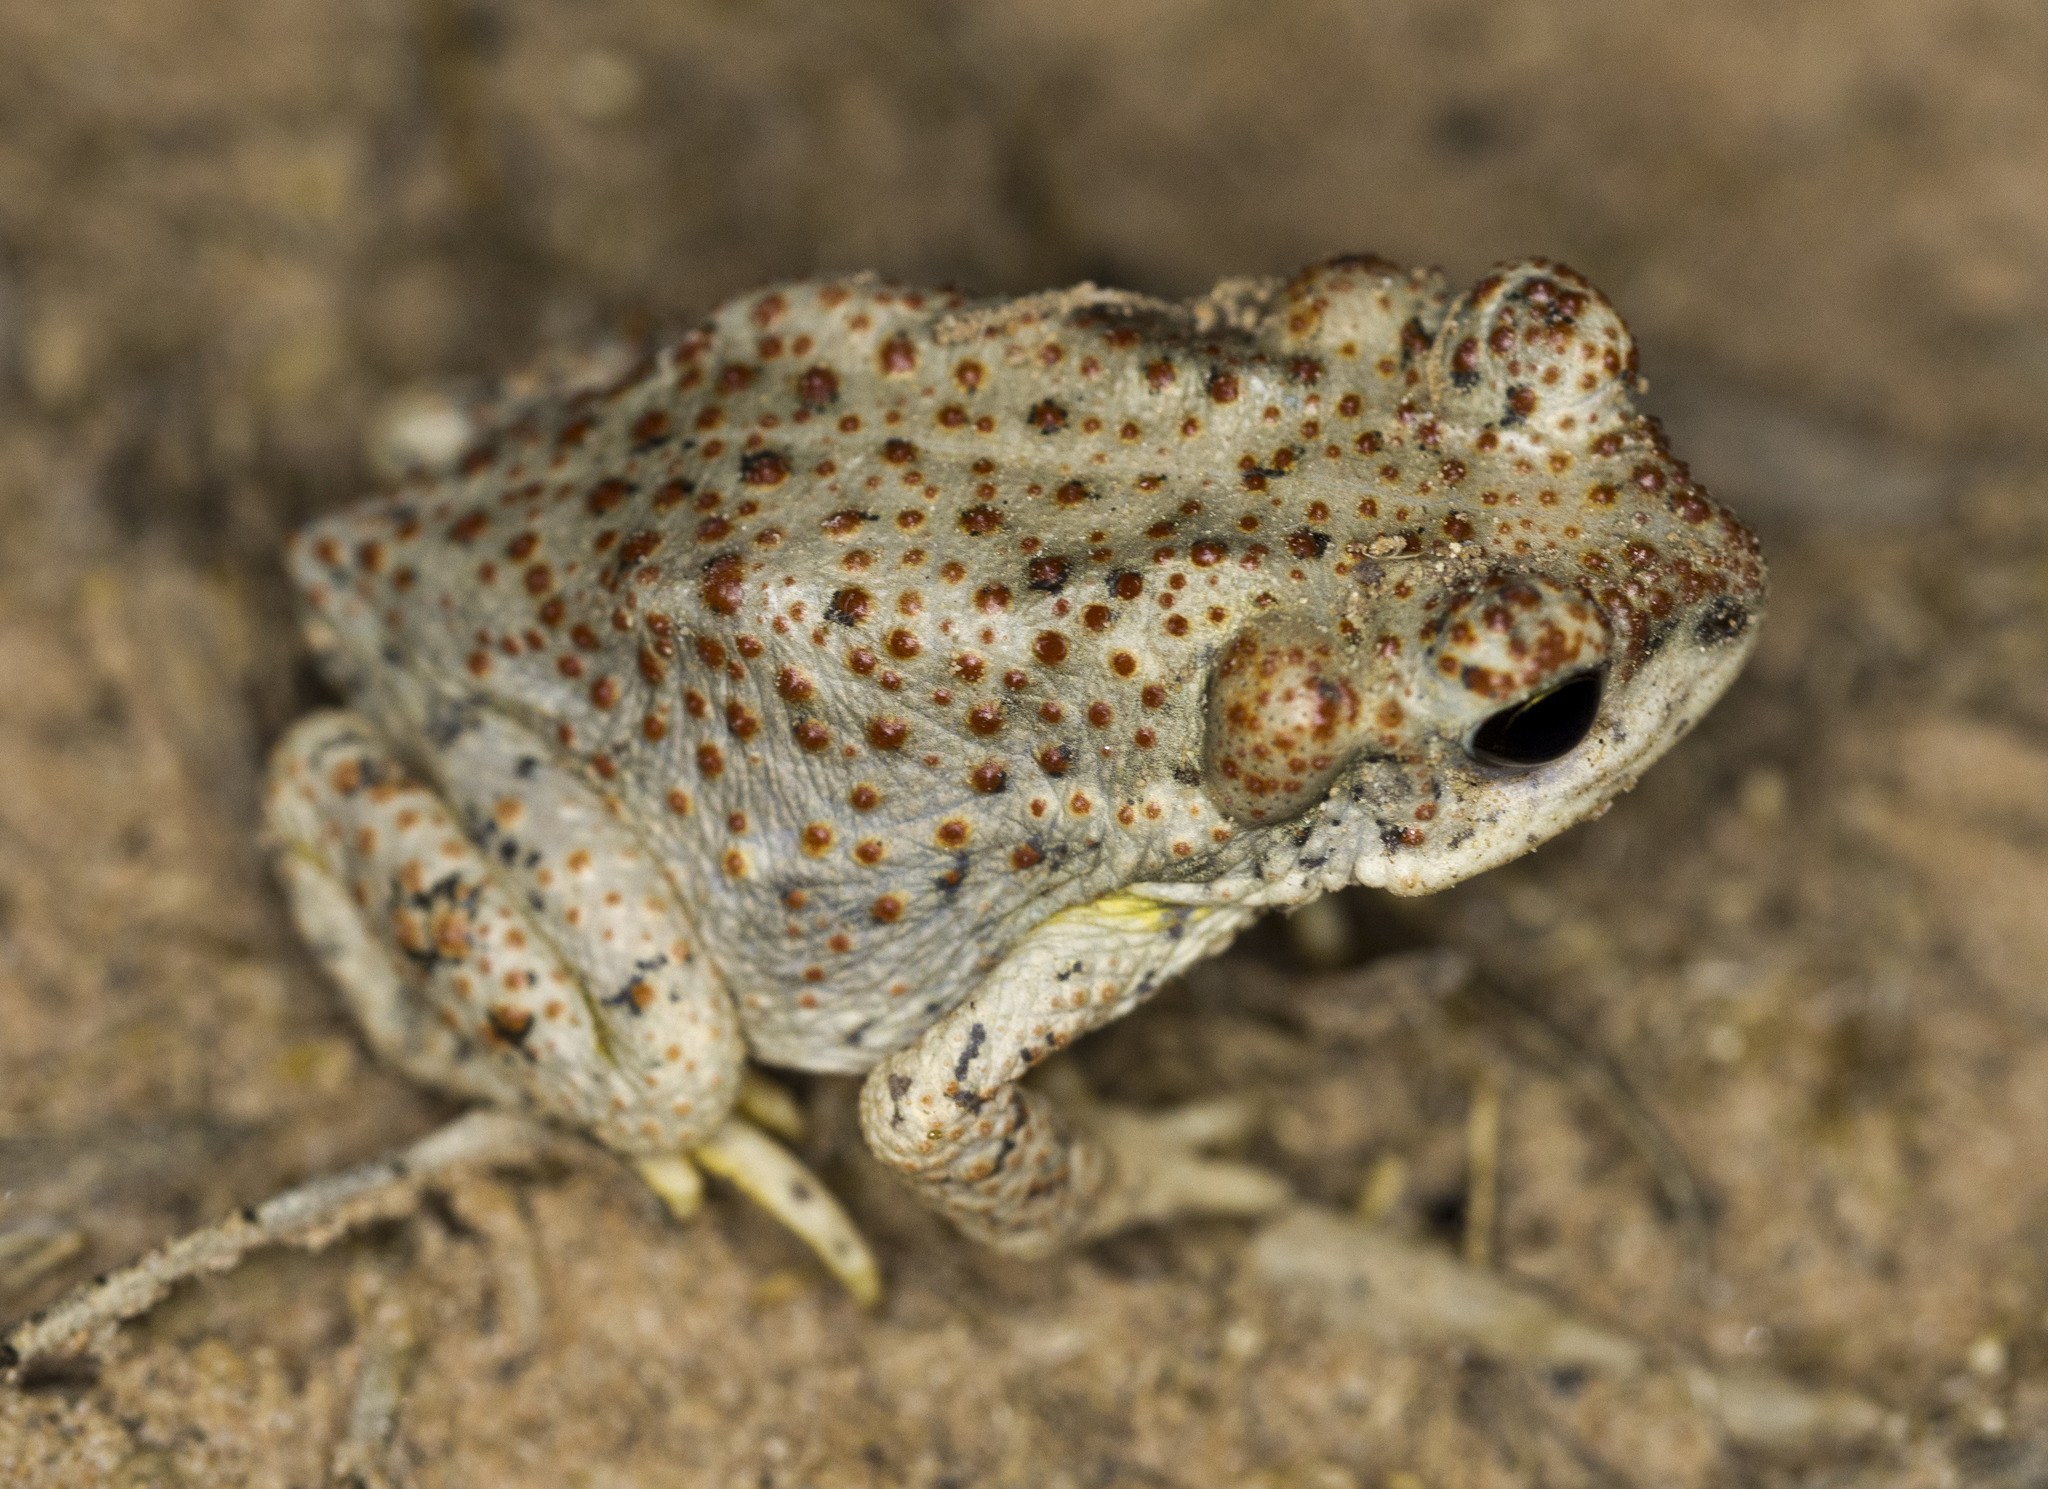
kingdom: Animalia
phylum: Chordata
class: Amphibia
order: Anura
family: Bufonidae
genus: Anaxyrus
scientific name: Anaxyrus punctatus
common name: Red-spotted toad
